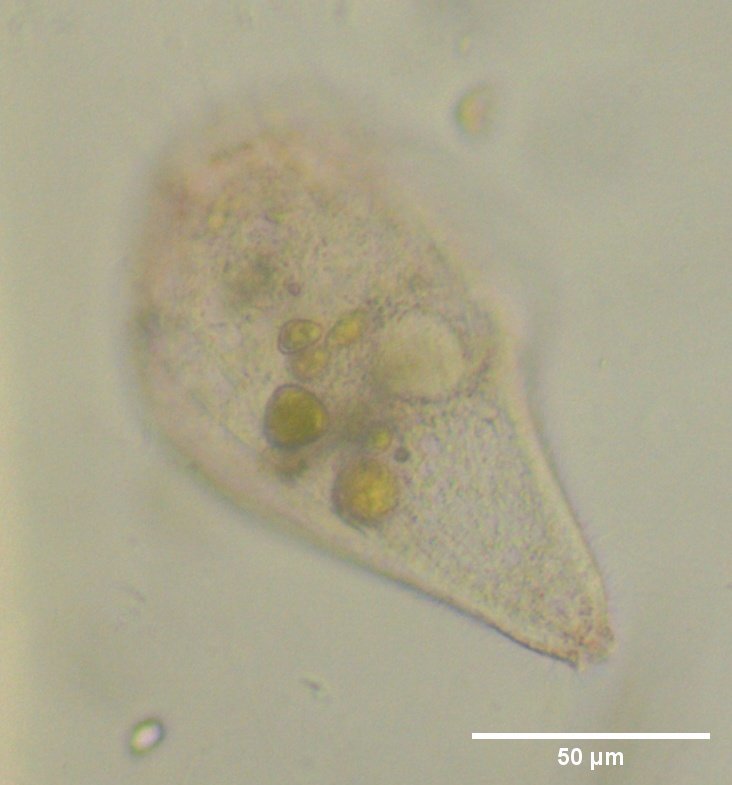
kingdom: Chromista
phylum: Ciliophora
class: Heterotrichea
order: Heterotrichida
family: Stentoridae
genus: Stentor
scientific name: Stentor igneus
